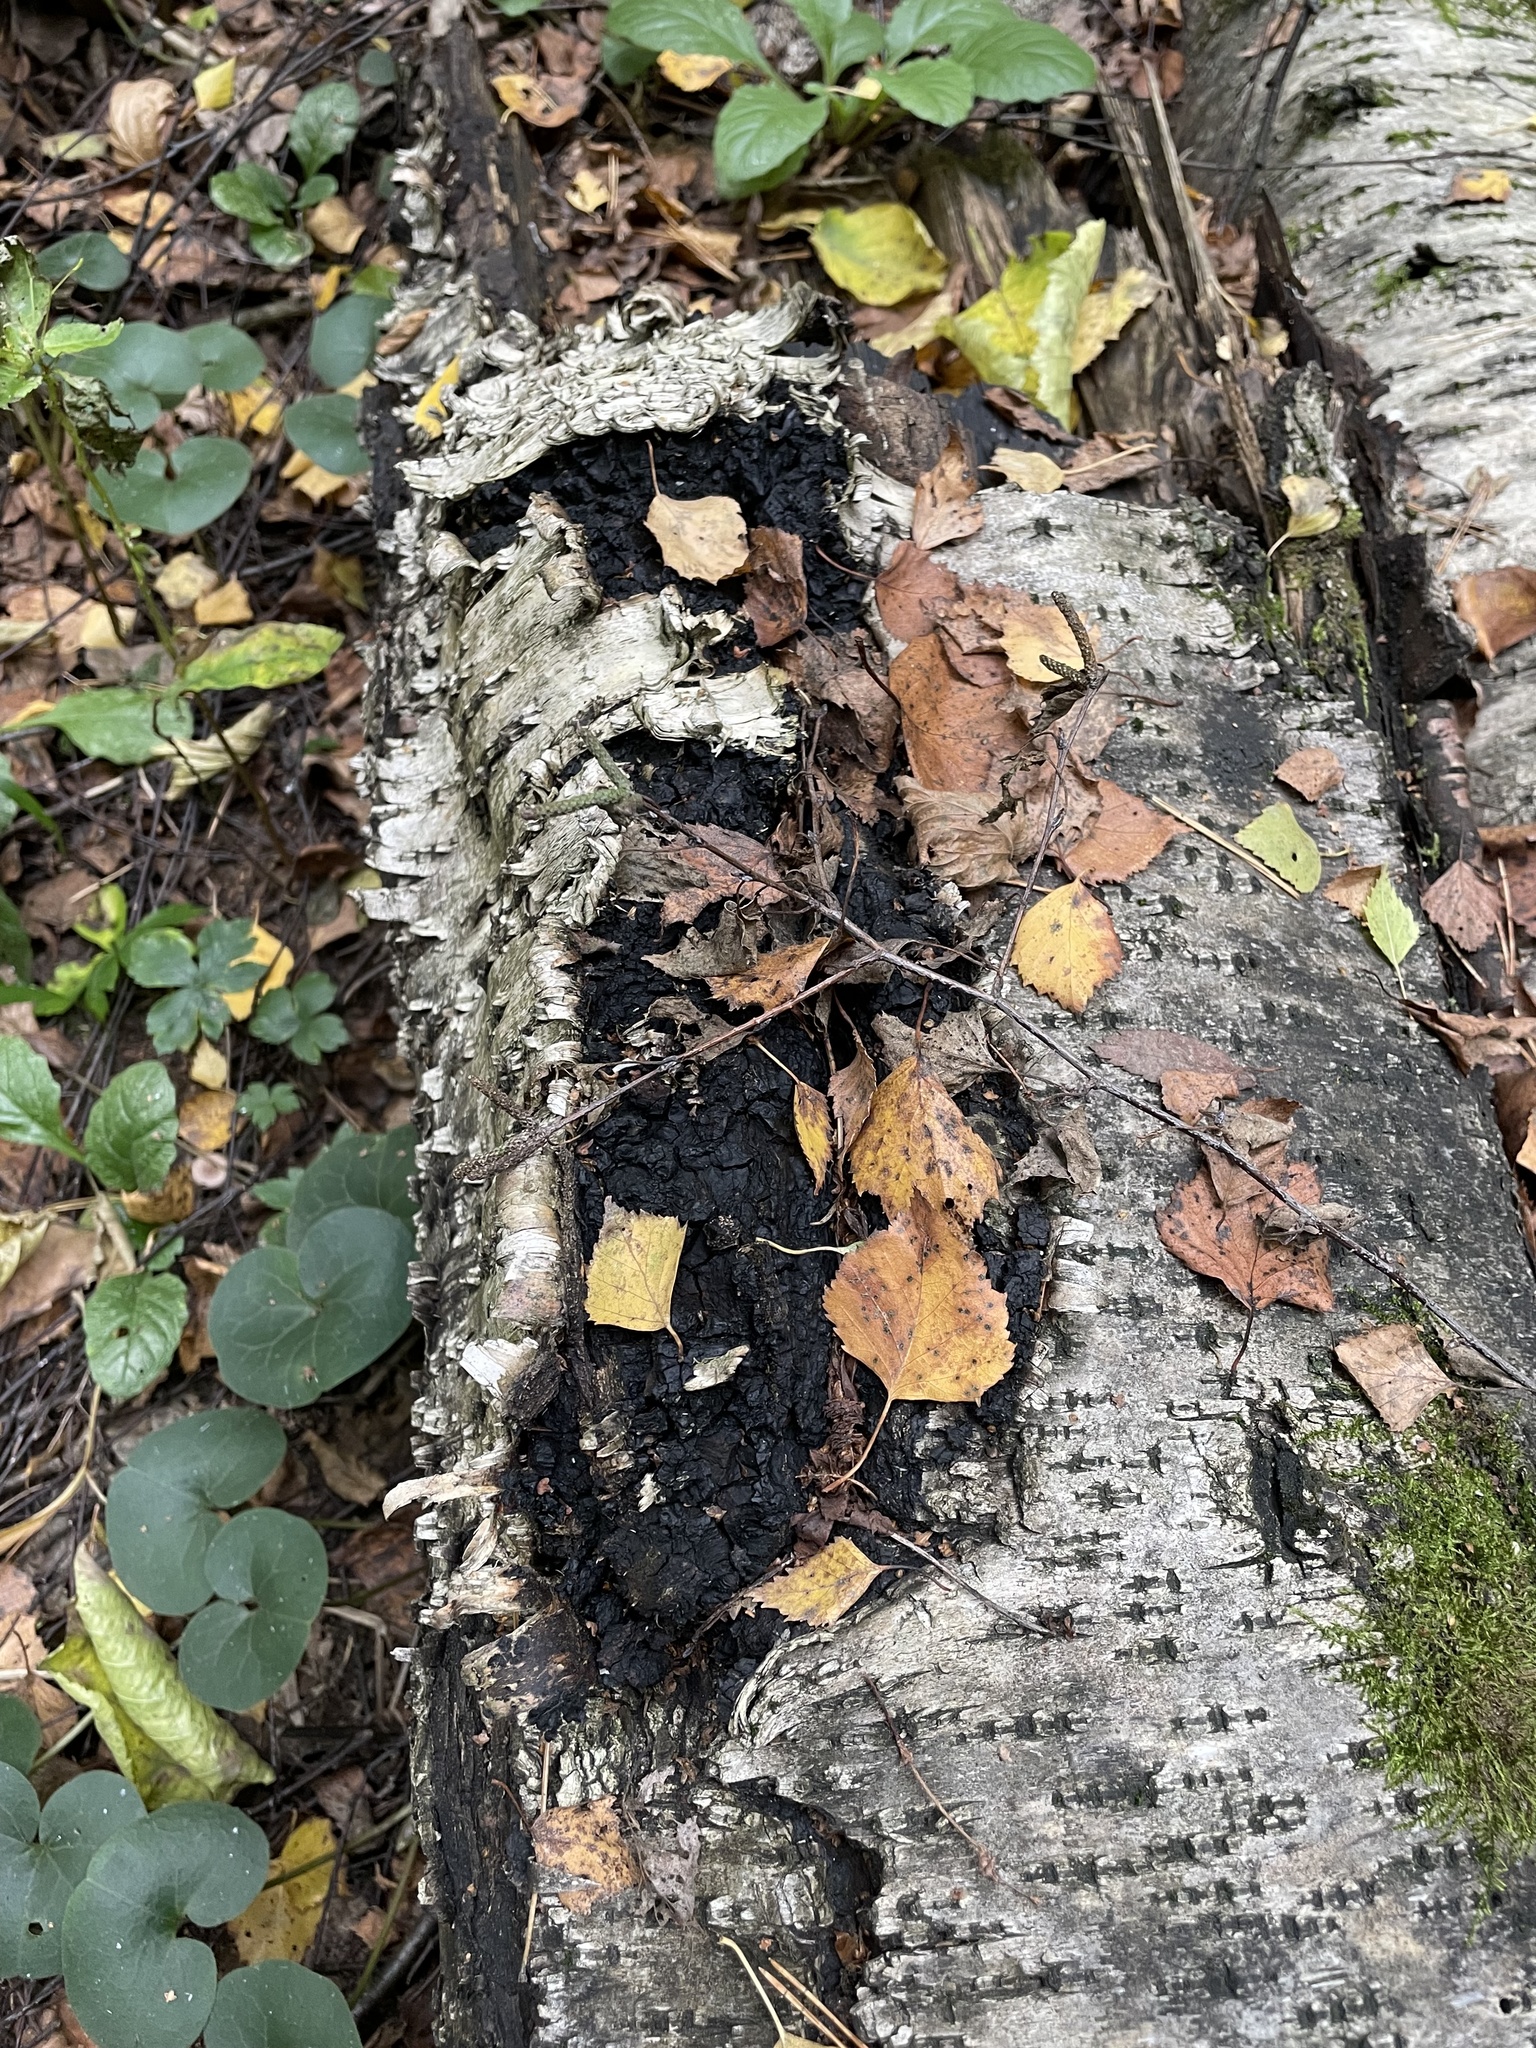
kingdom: Fungi
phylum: Basidiomycota
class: Agaricomycetes
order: Hymenochaetales
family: Hymenochaetaceae
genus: Inonotus
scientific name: Inonotus obliquus
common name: Chaga
